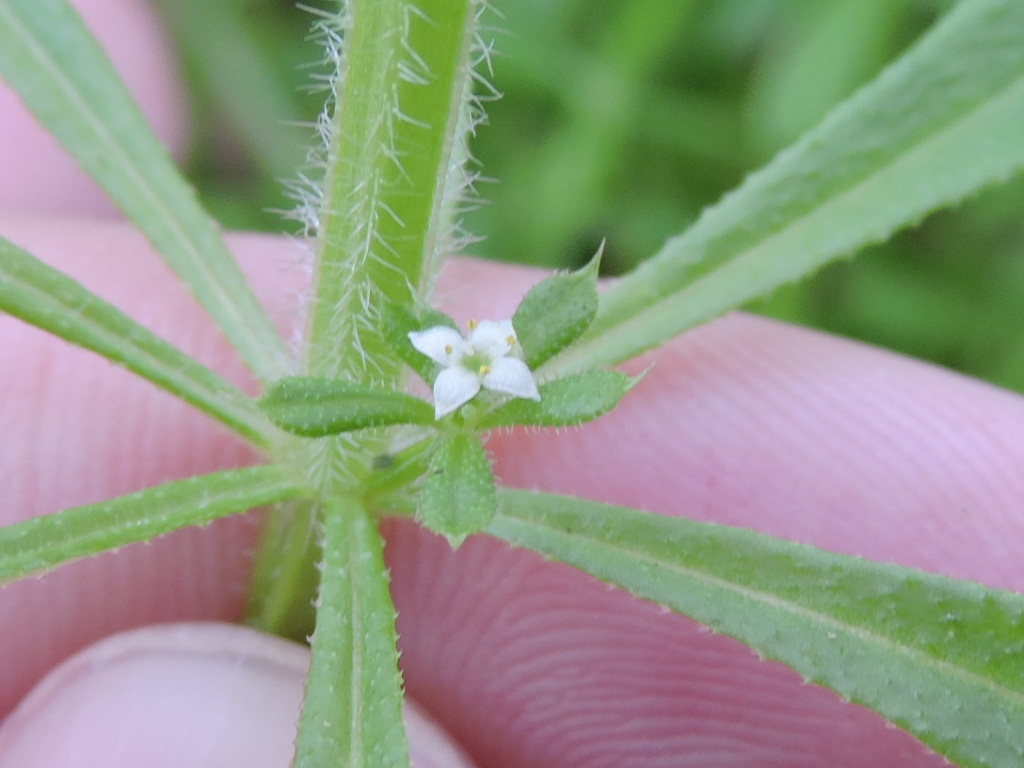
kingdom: Plantae
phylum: Tracheophyta
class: Magnoliopsida
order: Gentianales
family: Rubiaceae
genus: Galium
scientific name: Galium aparine
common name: Cleavers
